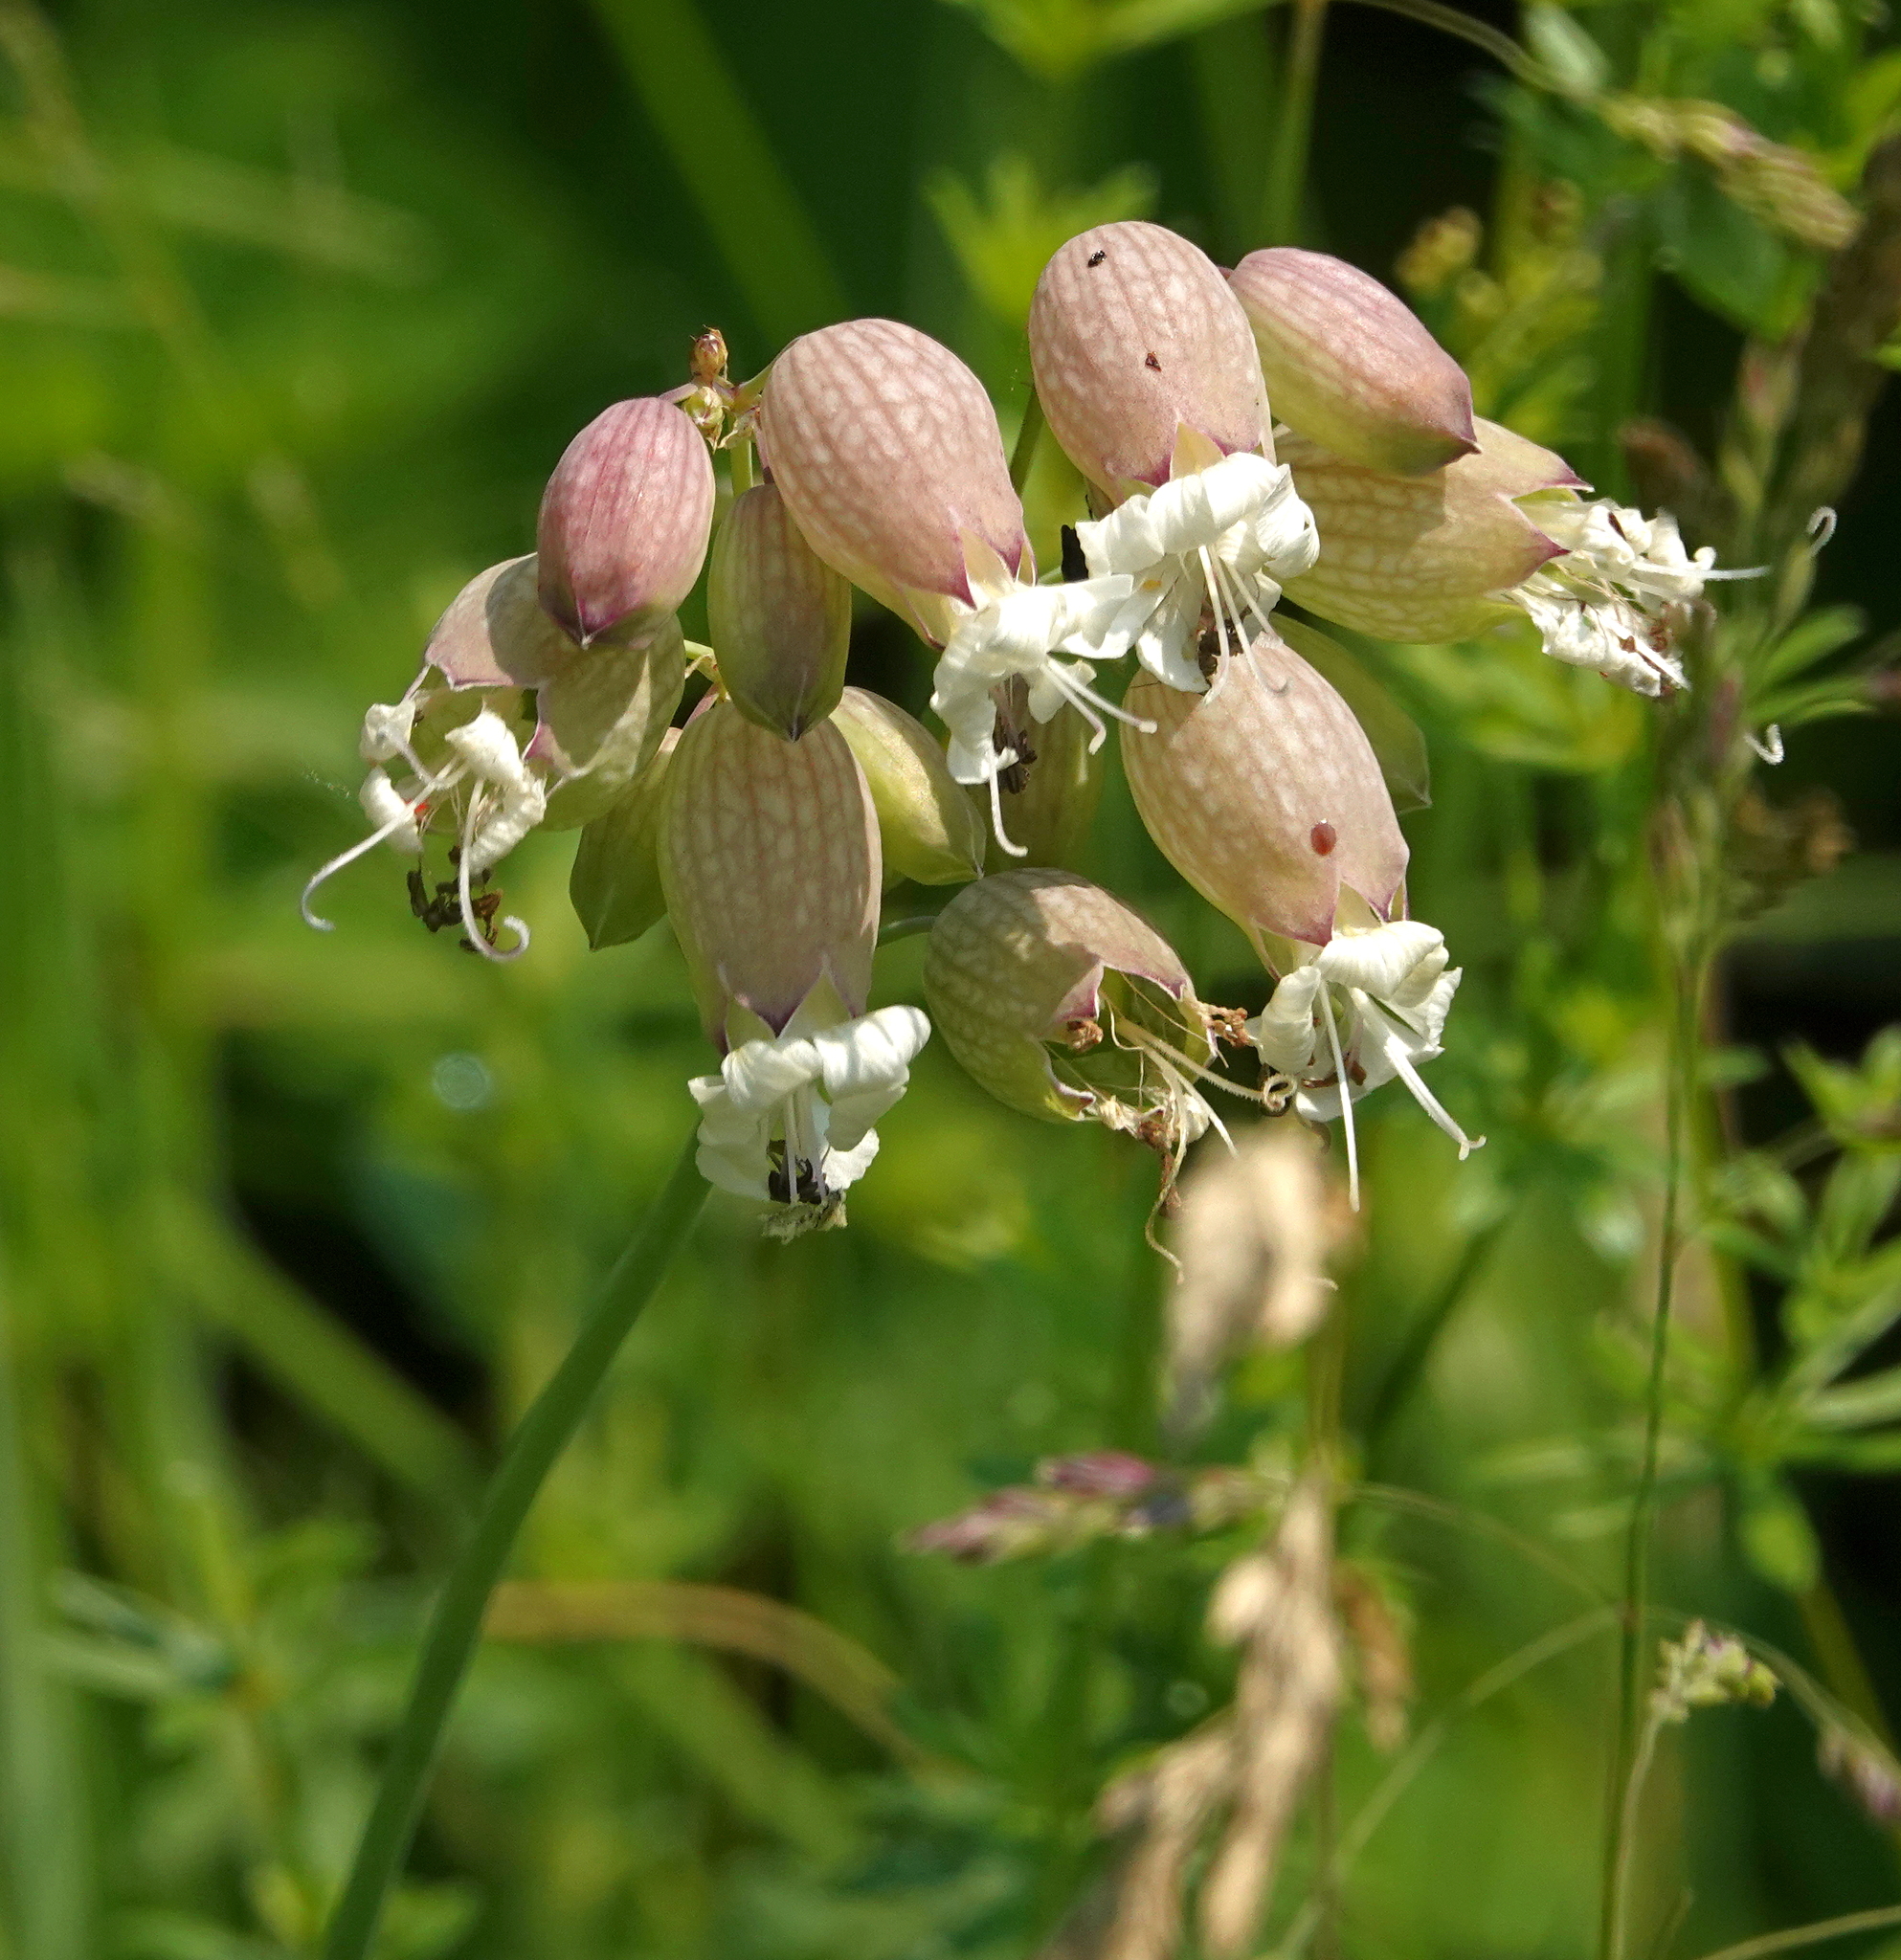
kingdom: Plantae
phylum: Tracheophyta
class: Magnoliopsida
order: Caryophyllales
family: Caryophyllaceae
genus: Silene
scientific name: Silene vulgaris
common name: Bladder campion
